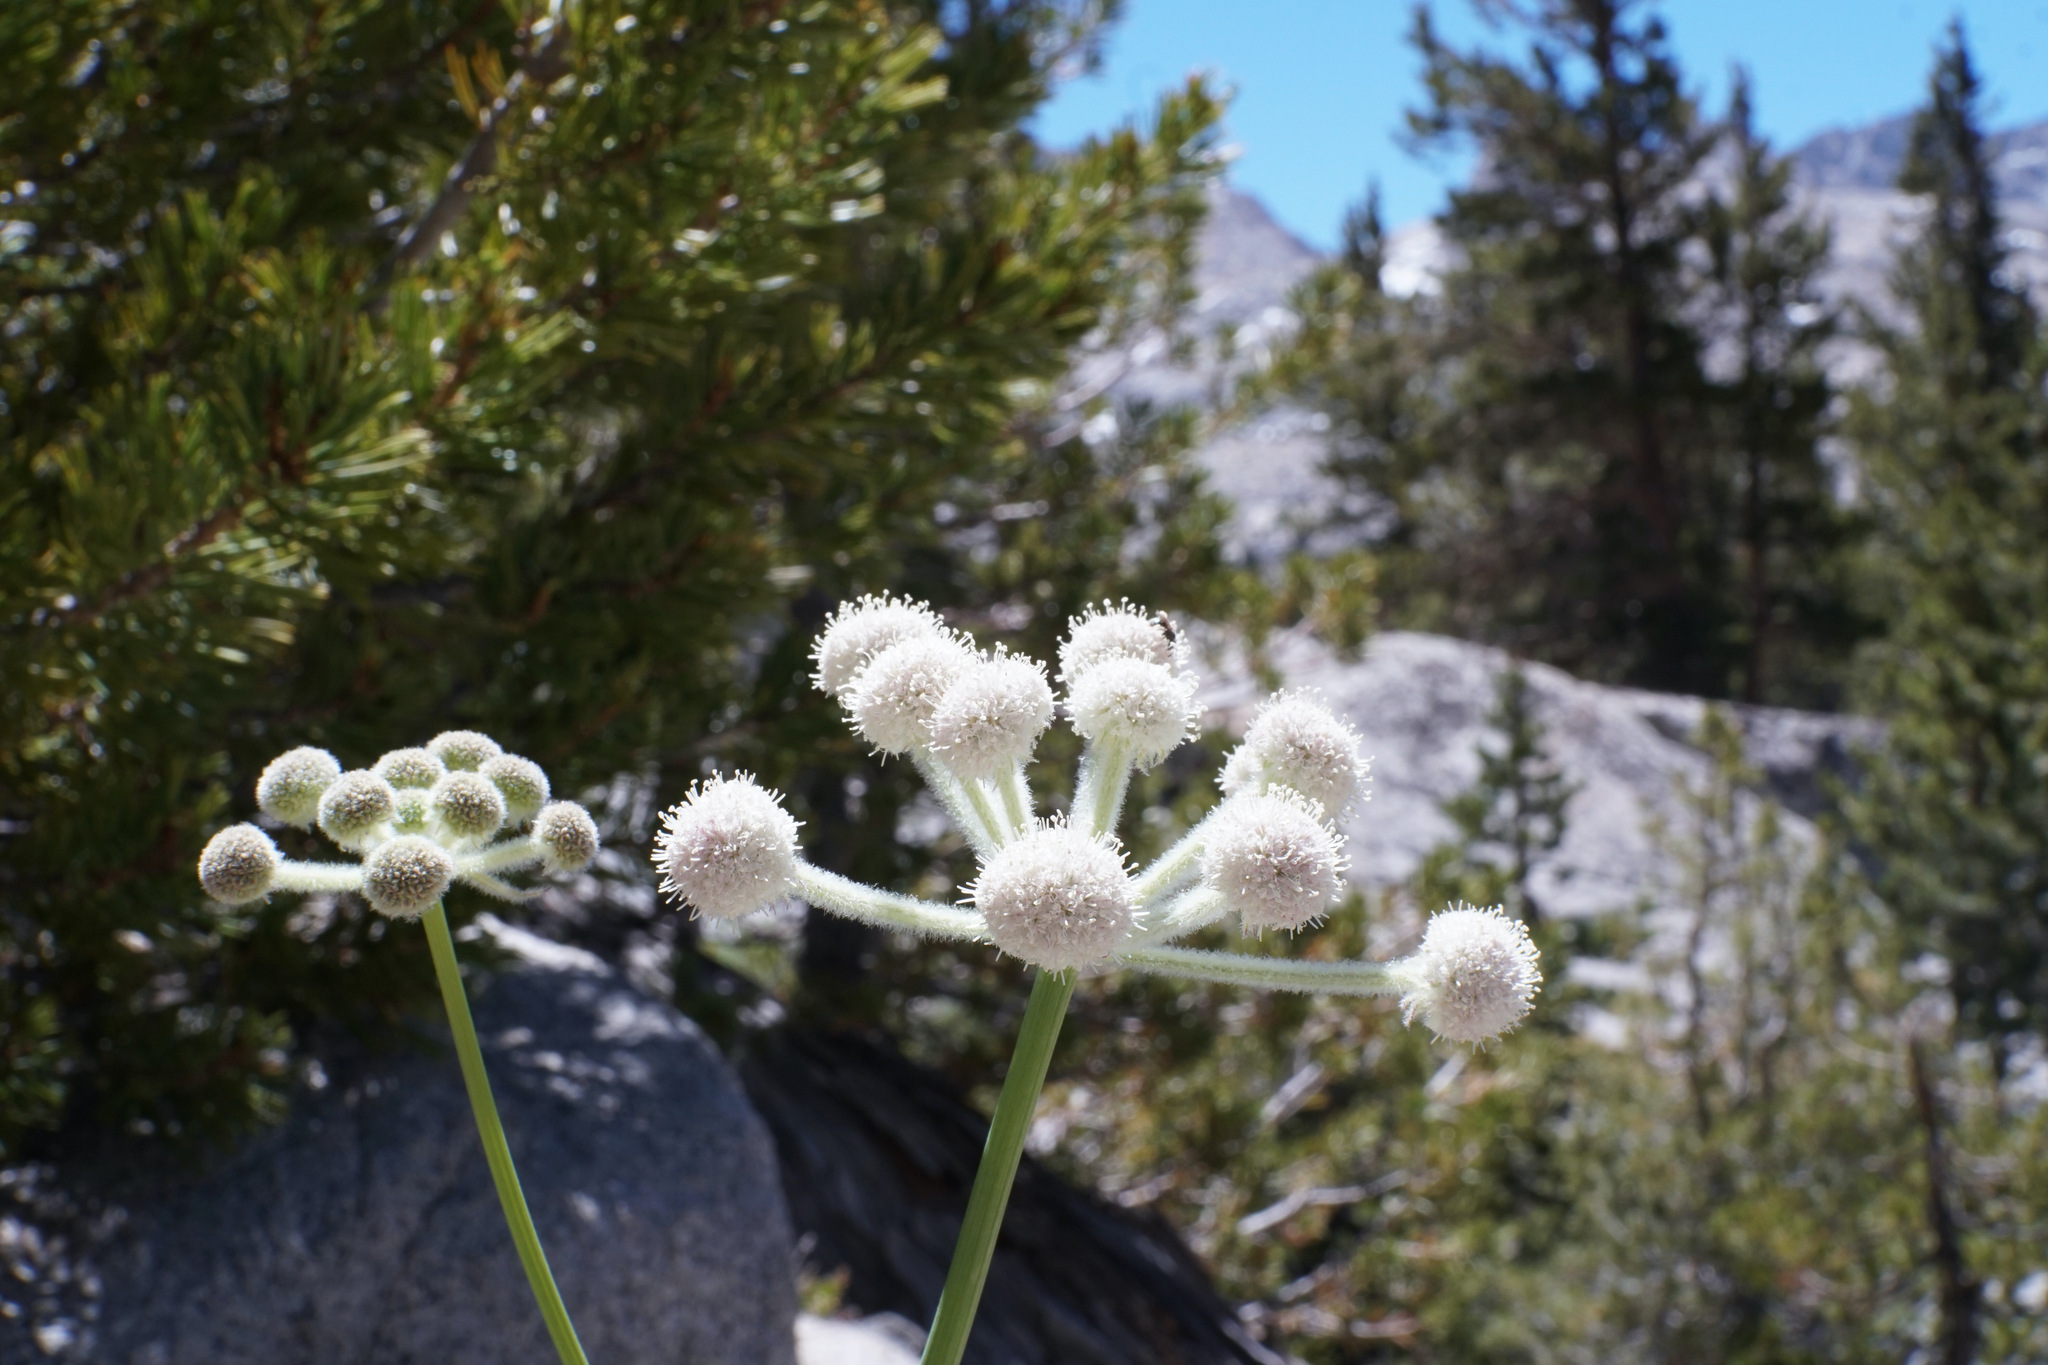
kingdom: Plantae
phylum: Tracheophyta
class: Magnoliopsida
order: Apiales
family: Apiaceae
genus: Angelica
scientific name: Angelica capitellata
